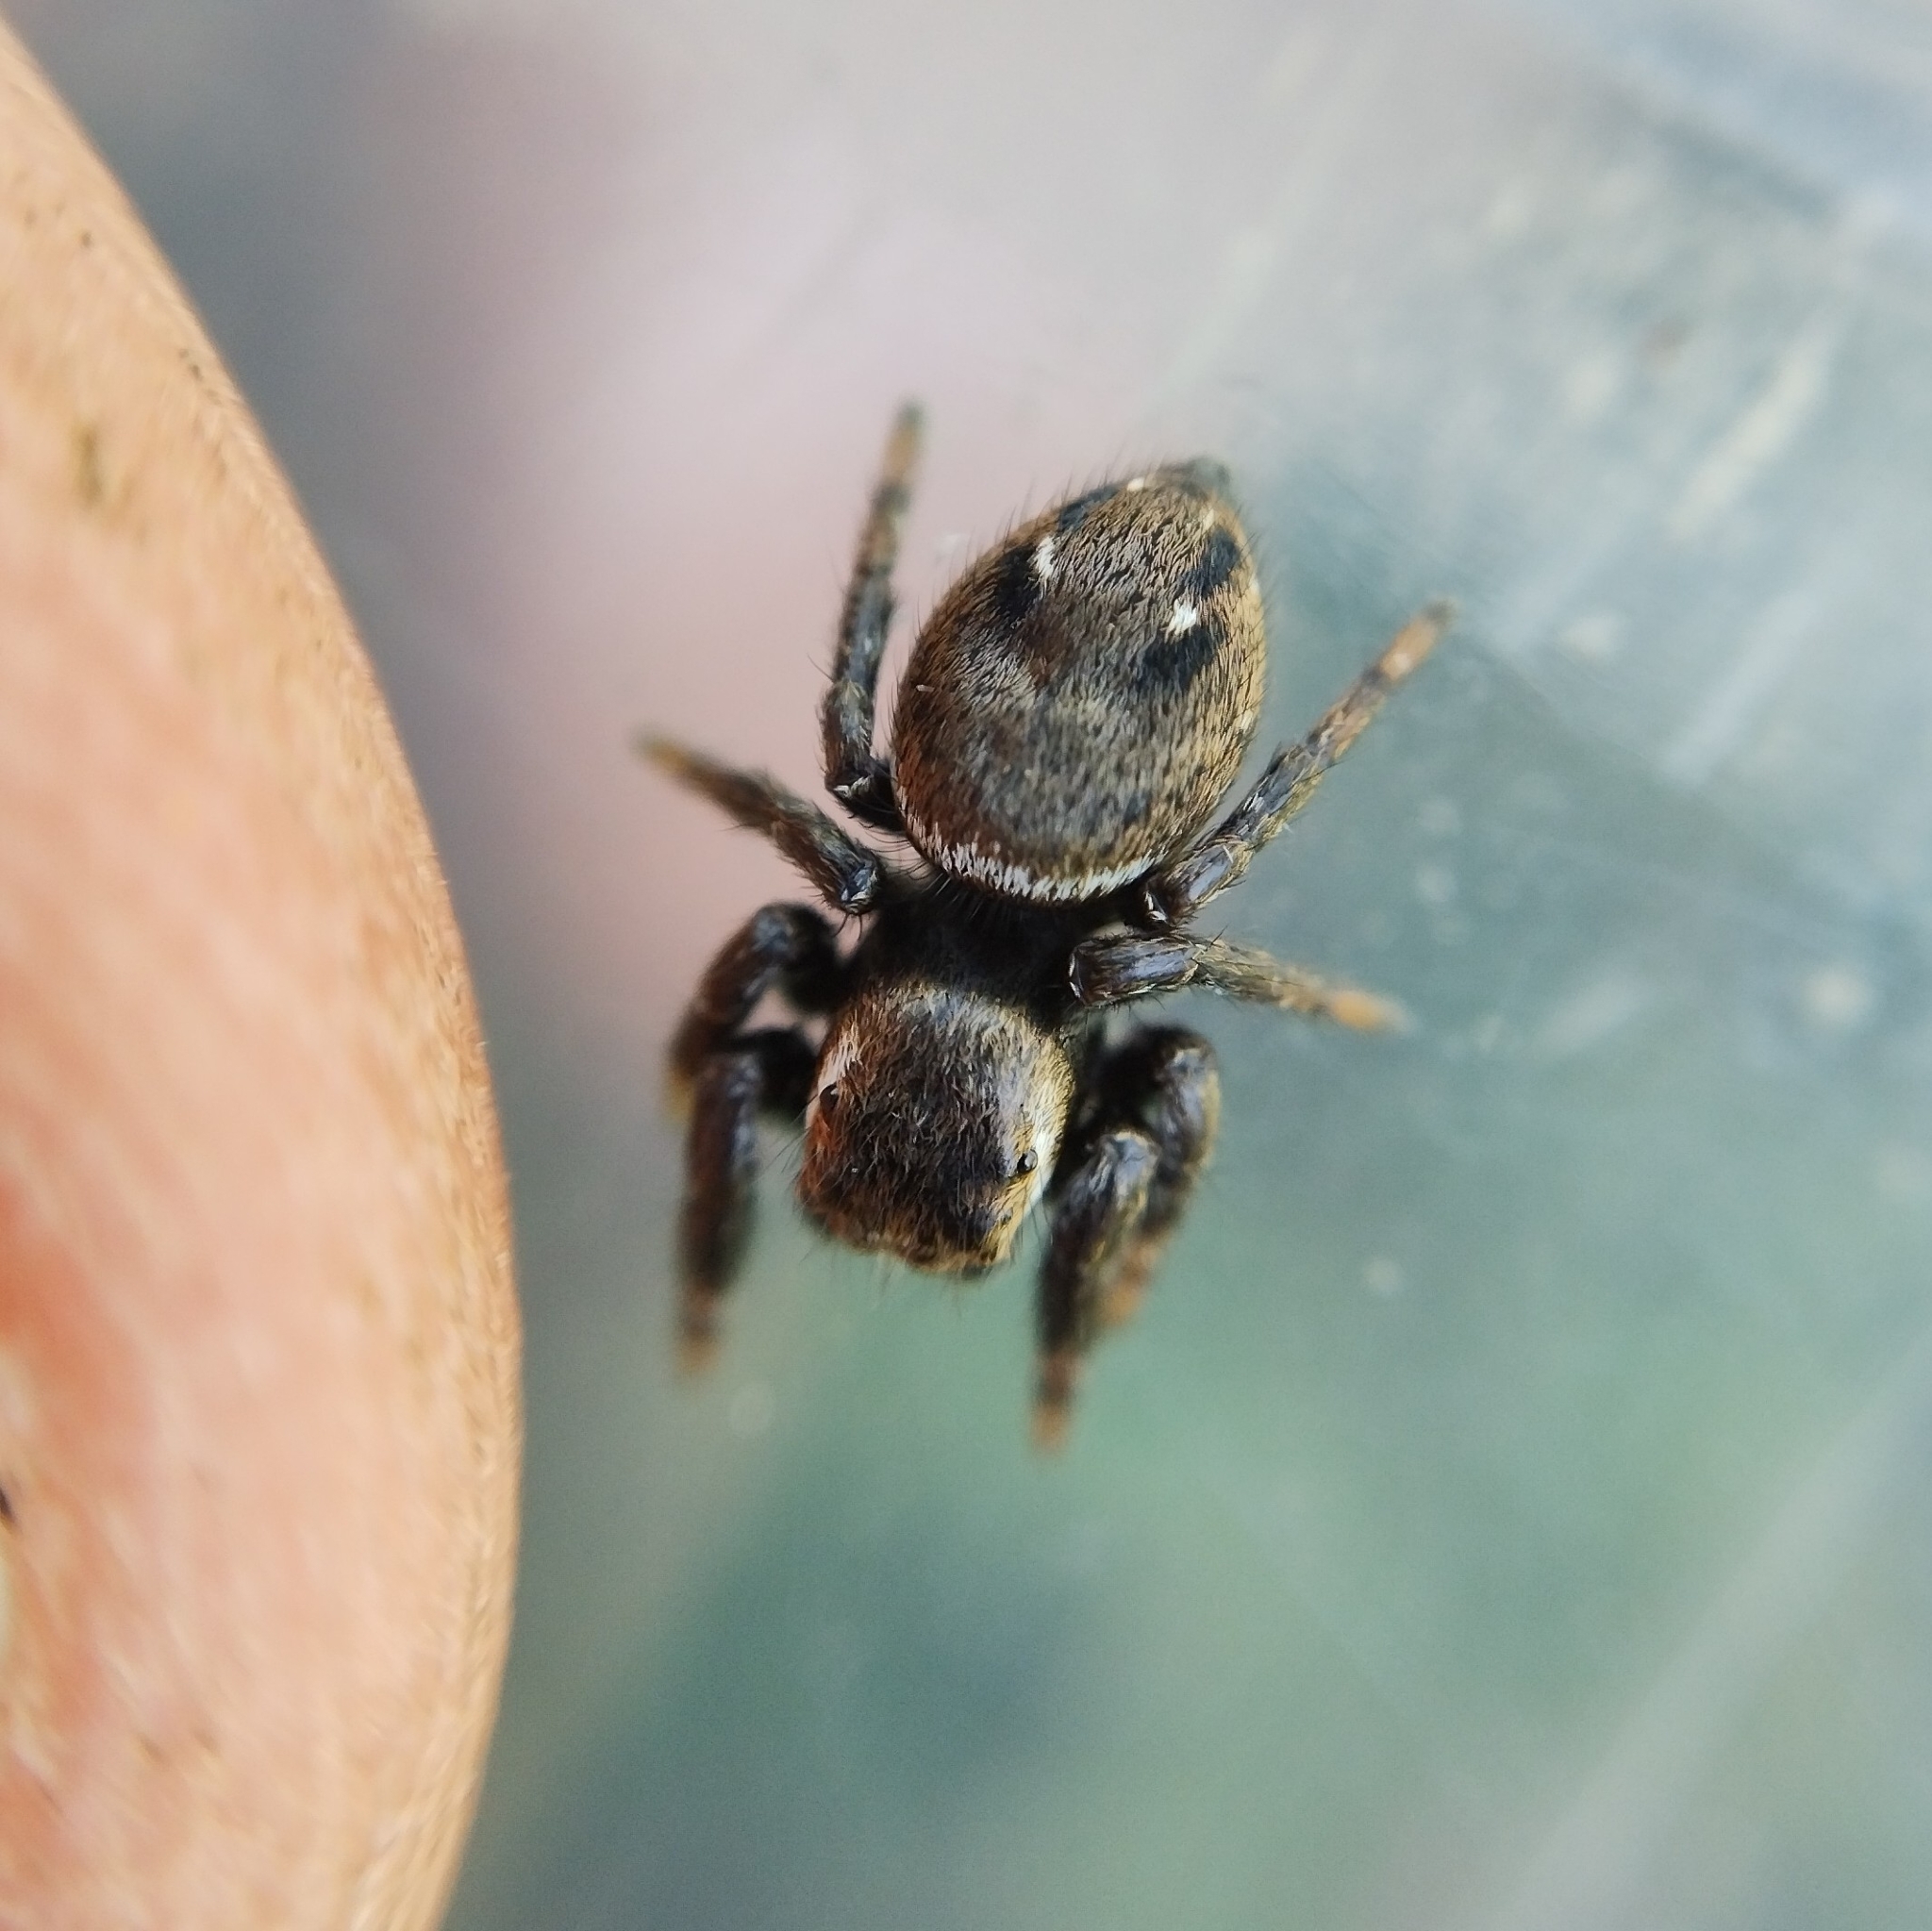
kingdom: Animalia
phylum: Arthropoda
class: Arachnida
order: Araneae
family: Salticidae
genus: Evarcha
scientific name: Evarcha arcuata
